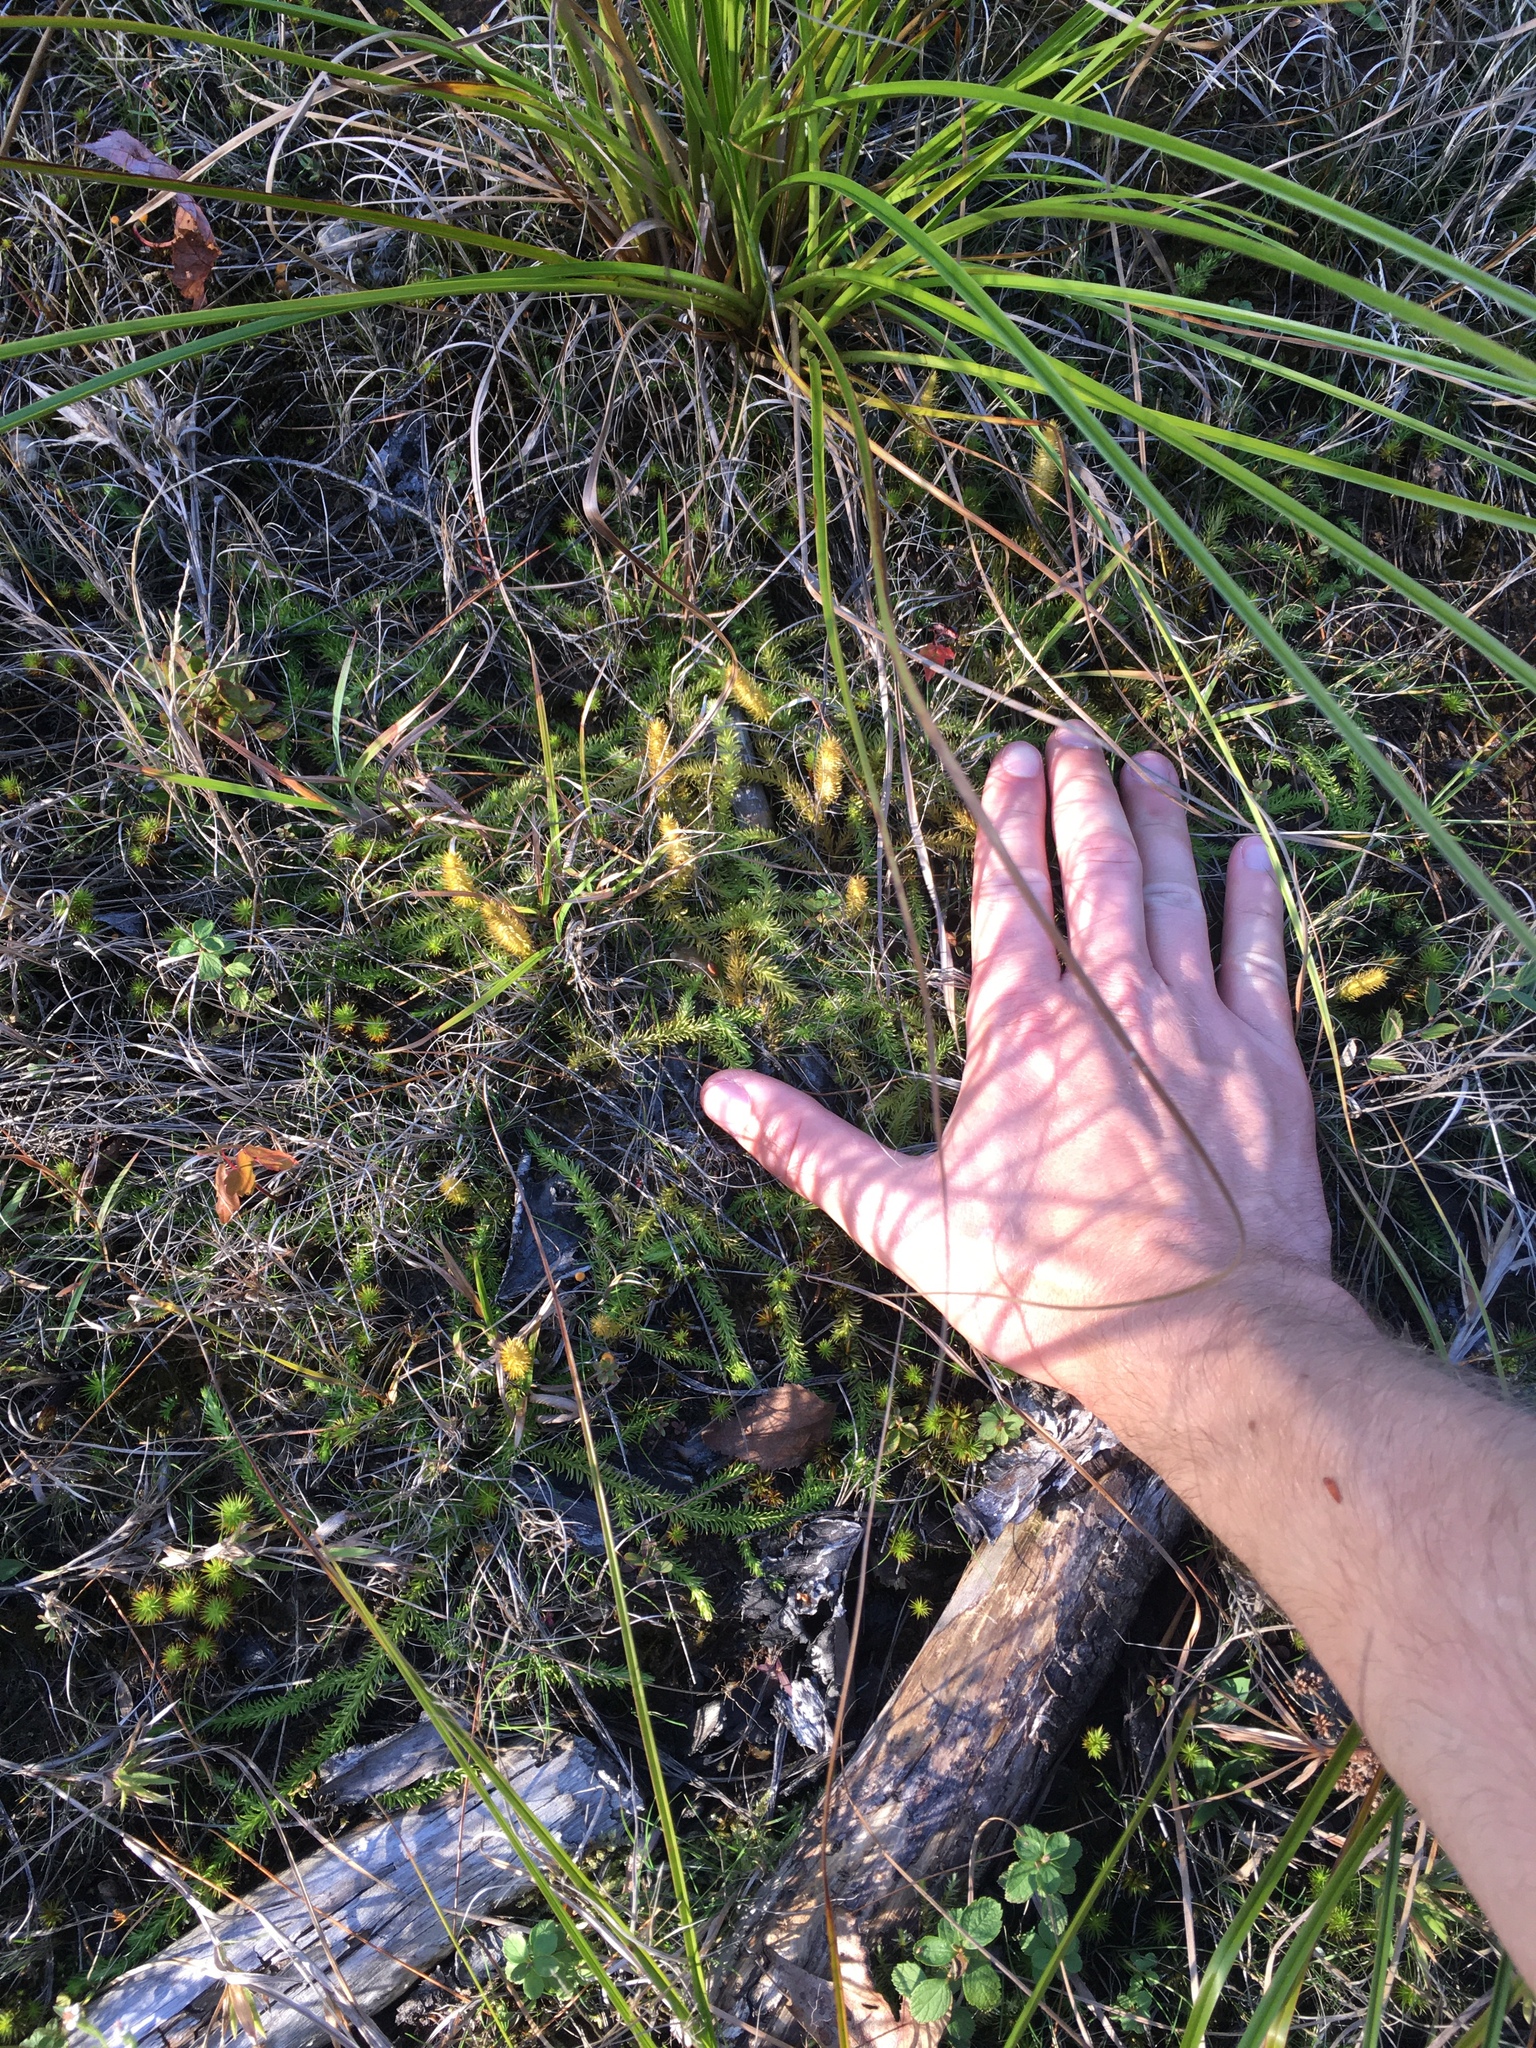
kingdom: Plantae
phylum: Tracheophyta
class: Lycopodiopsida
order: Lycopodiales
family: Lycopodiaceae
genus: Lycopodiella
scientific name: Lycopodiella inundata
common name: Marsh clubmoss
